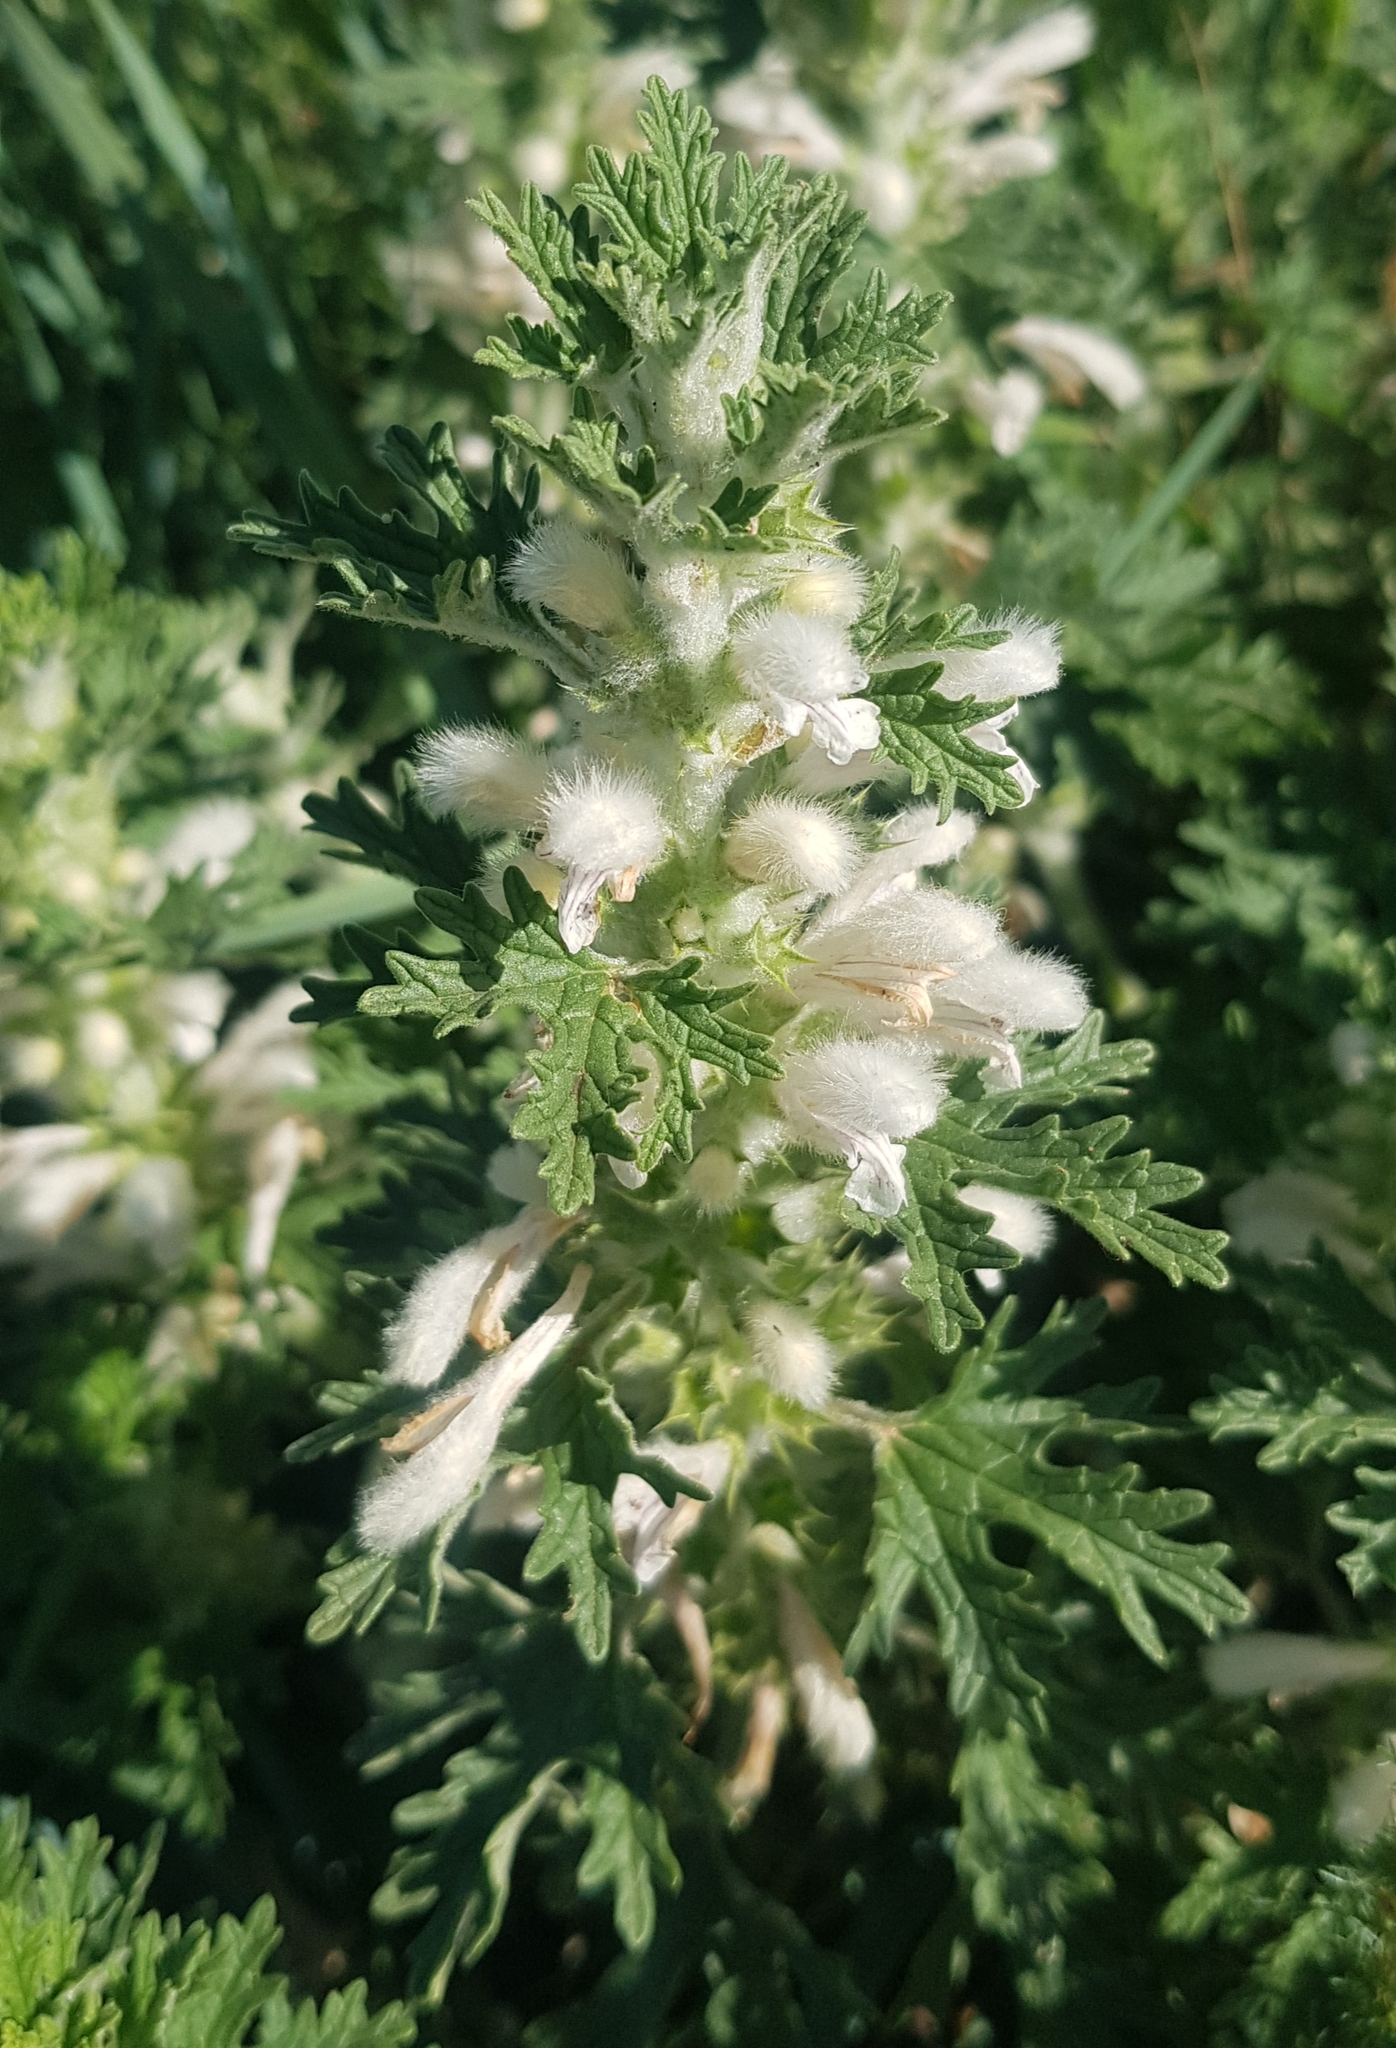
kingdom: Plantae
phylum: Tracheophyta
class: Magnoliopsida
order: Lamiales
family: Lamiaceae
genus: Panzerina
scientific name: Panzerina lanata
